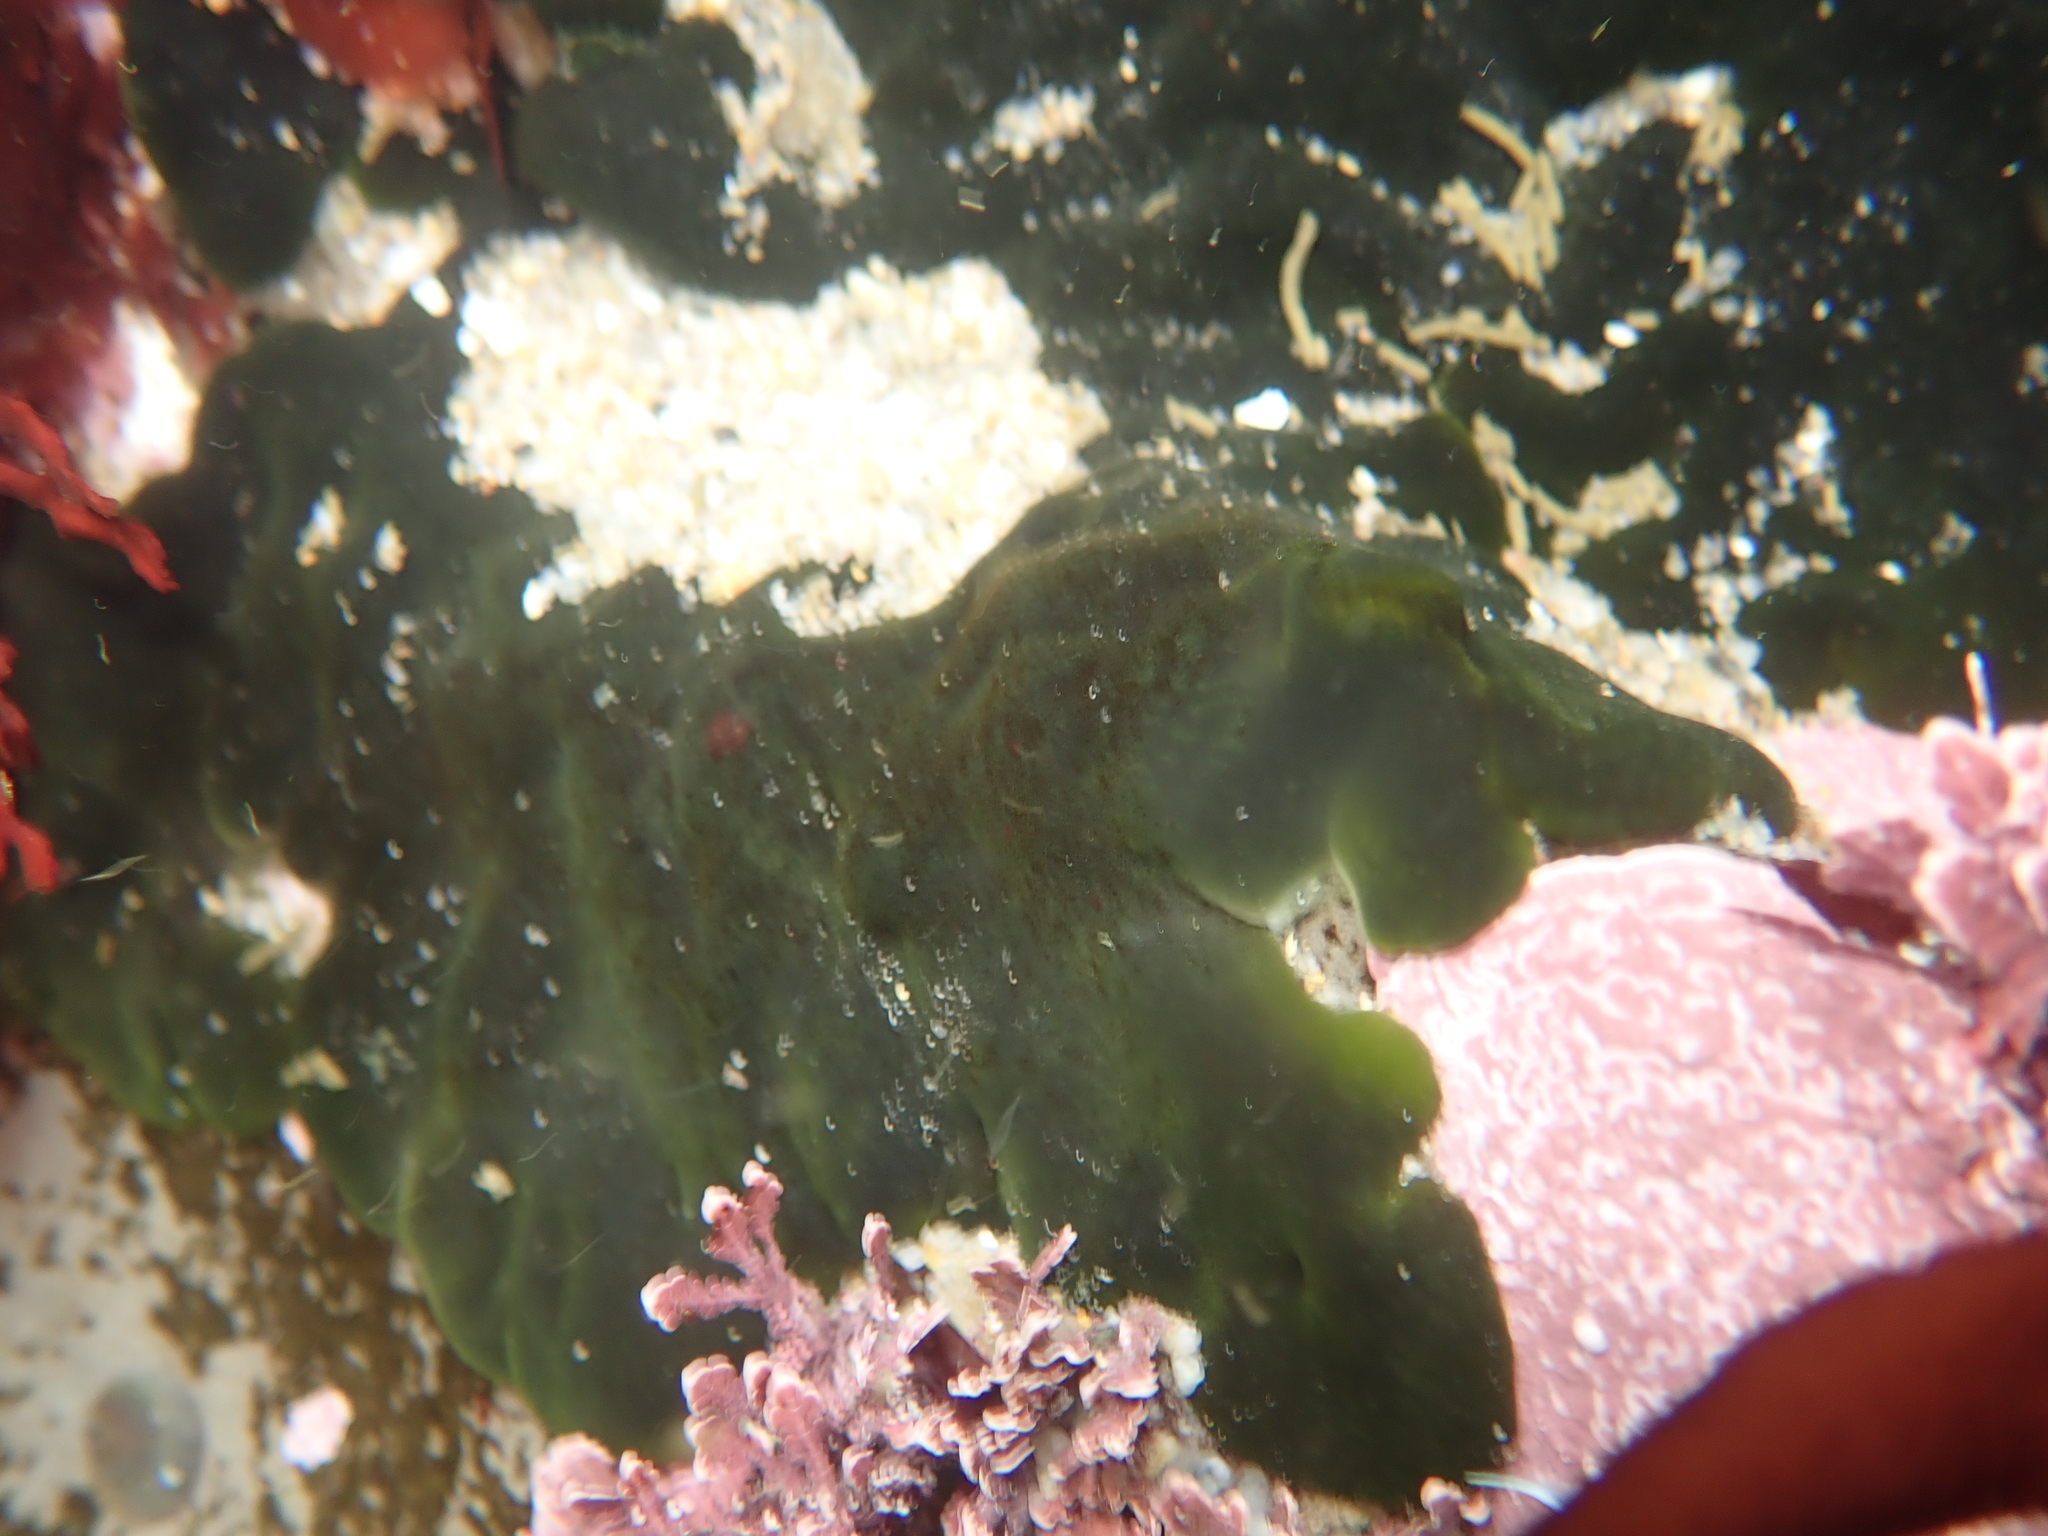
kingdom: Plantae
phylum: Chlorophyta
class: Ulvophyceae
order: Bryopsidales
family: Codiaceae
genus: Codium
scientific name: Codium setchellii
